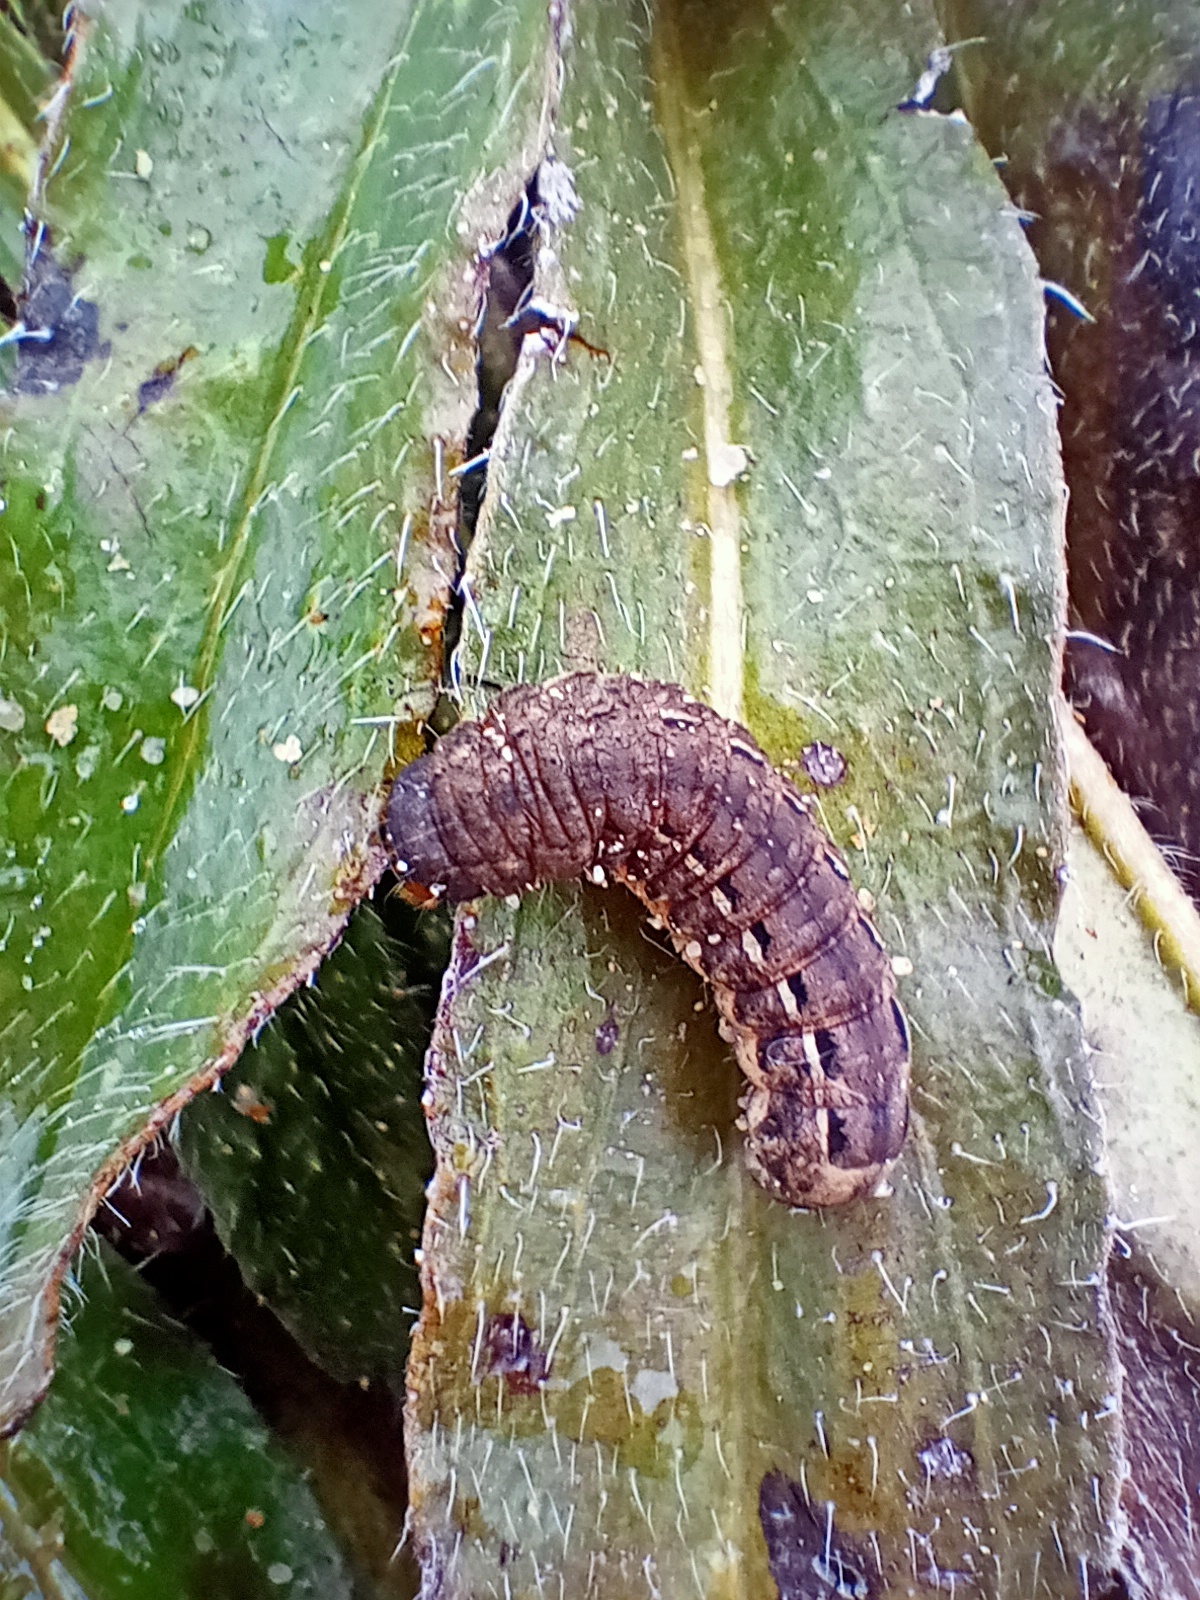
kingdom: Animalia
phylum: Arthropoda
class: Insecta
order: Lepidoptera
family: Noctuidae
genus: Noctua
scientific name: Noctua pronuba
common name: Large yellow underwing
